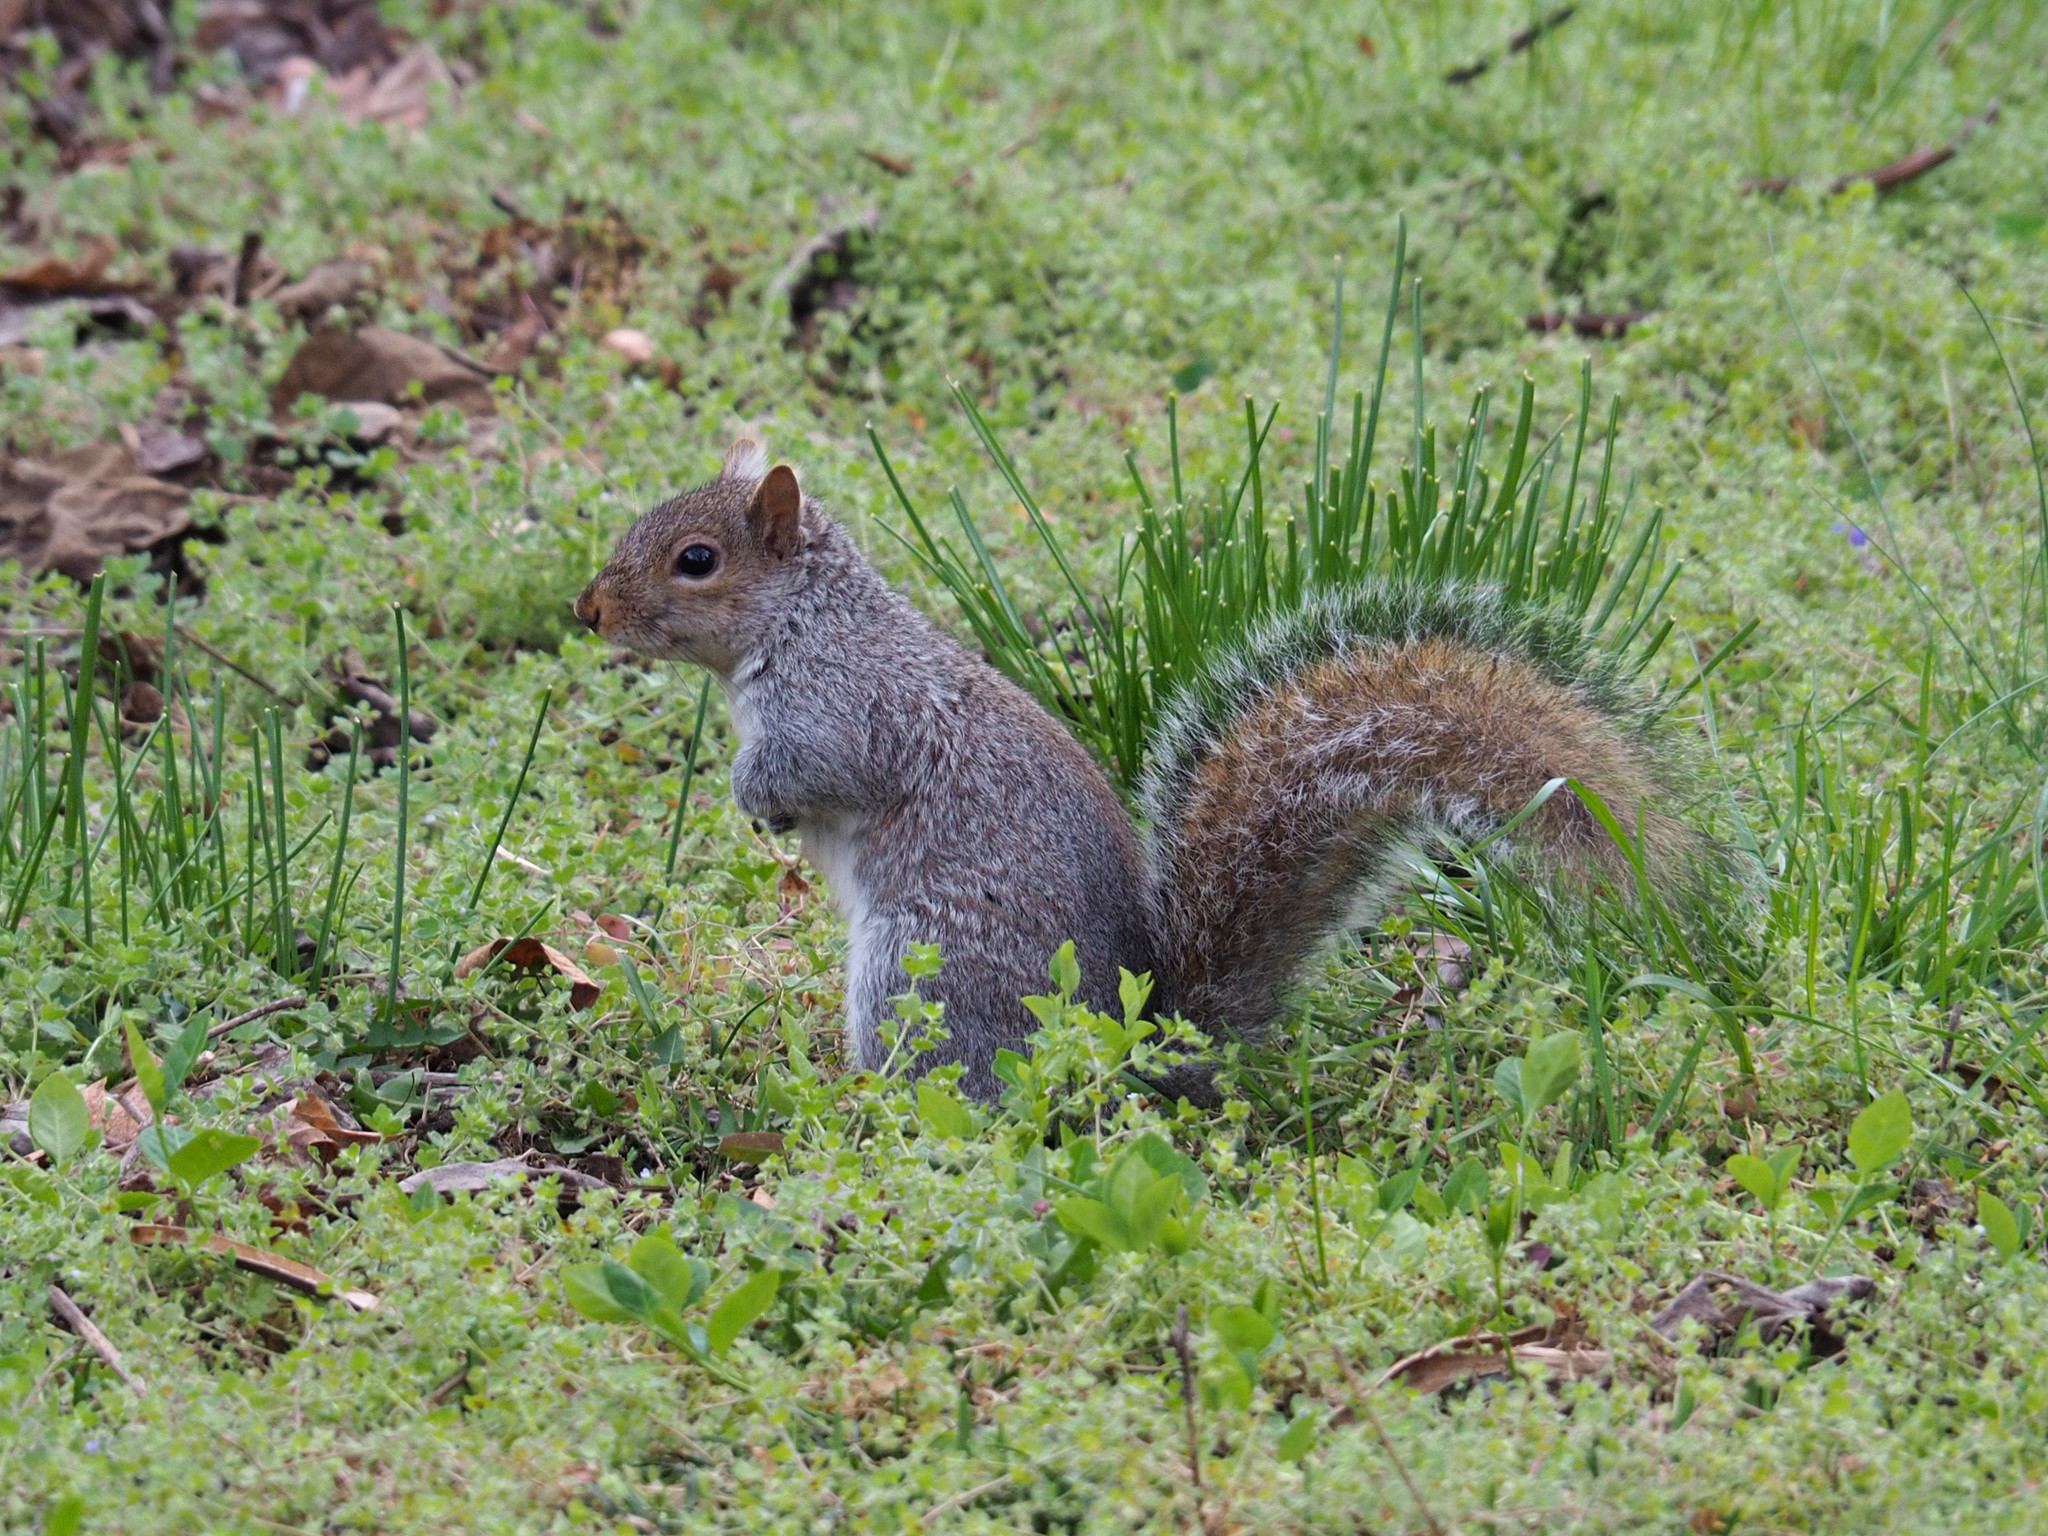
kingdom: Animalia
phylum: Chordata
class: Mammalia
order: Rodentia
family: Sciuridae
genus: Sciurus
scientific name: Sciurus carolinensis
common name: Eastern gray squirrel
